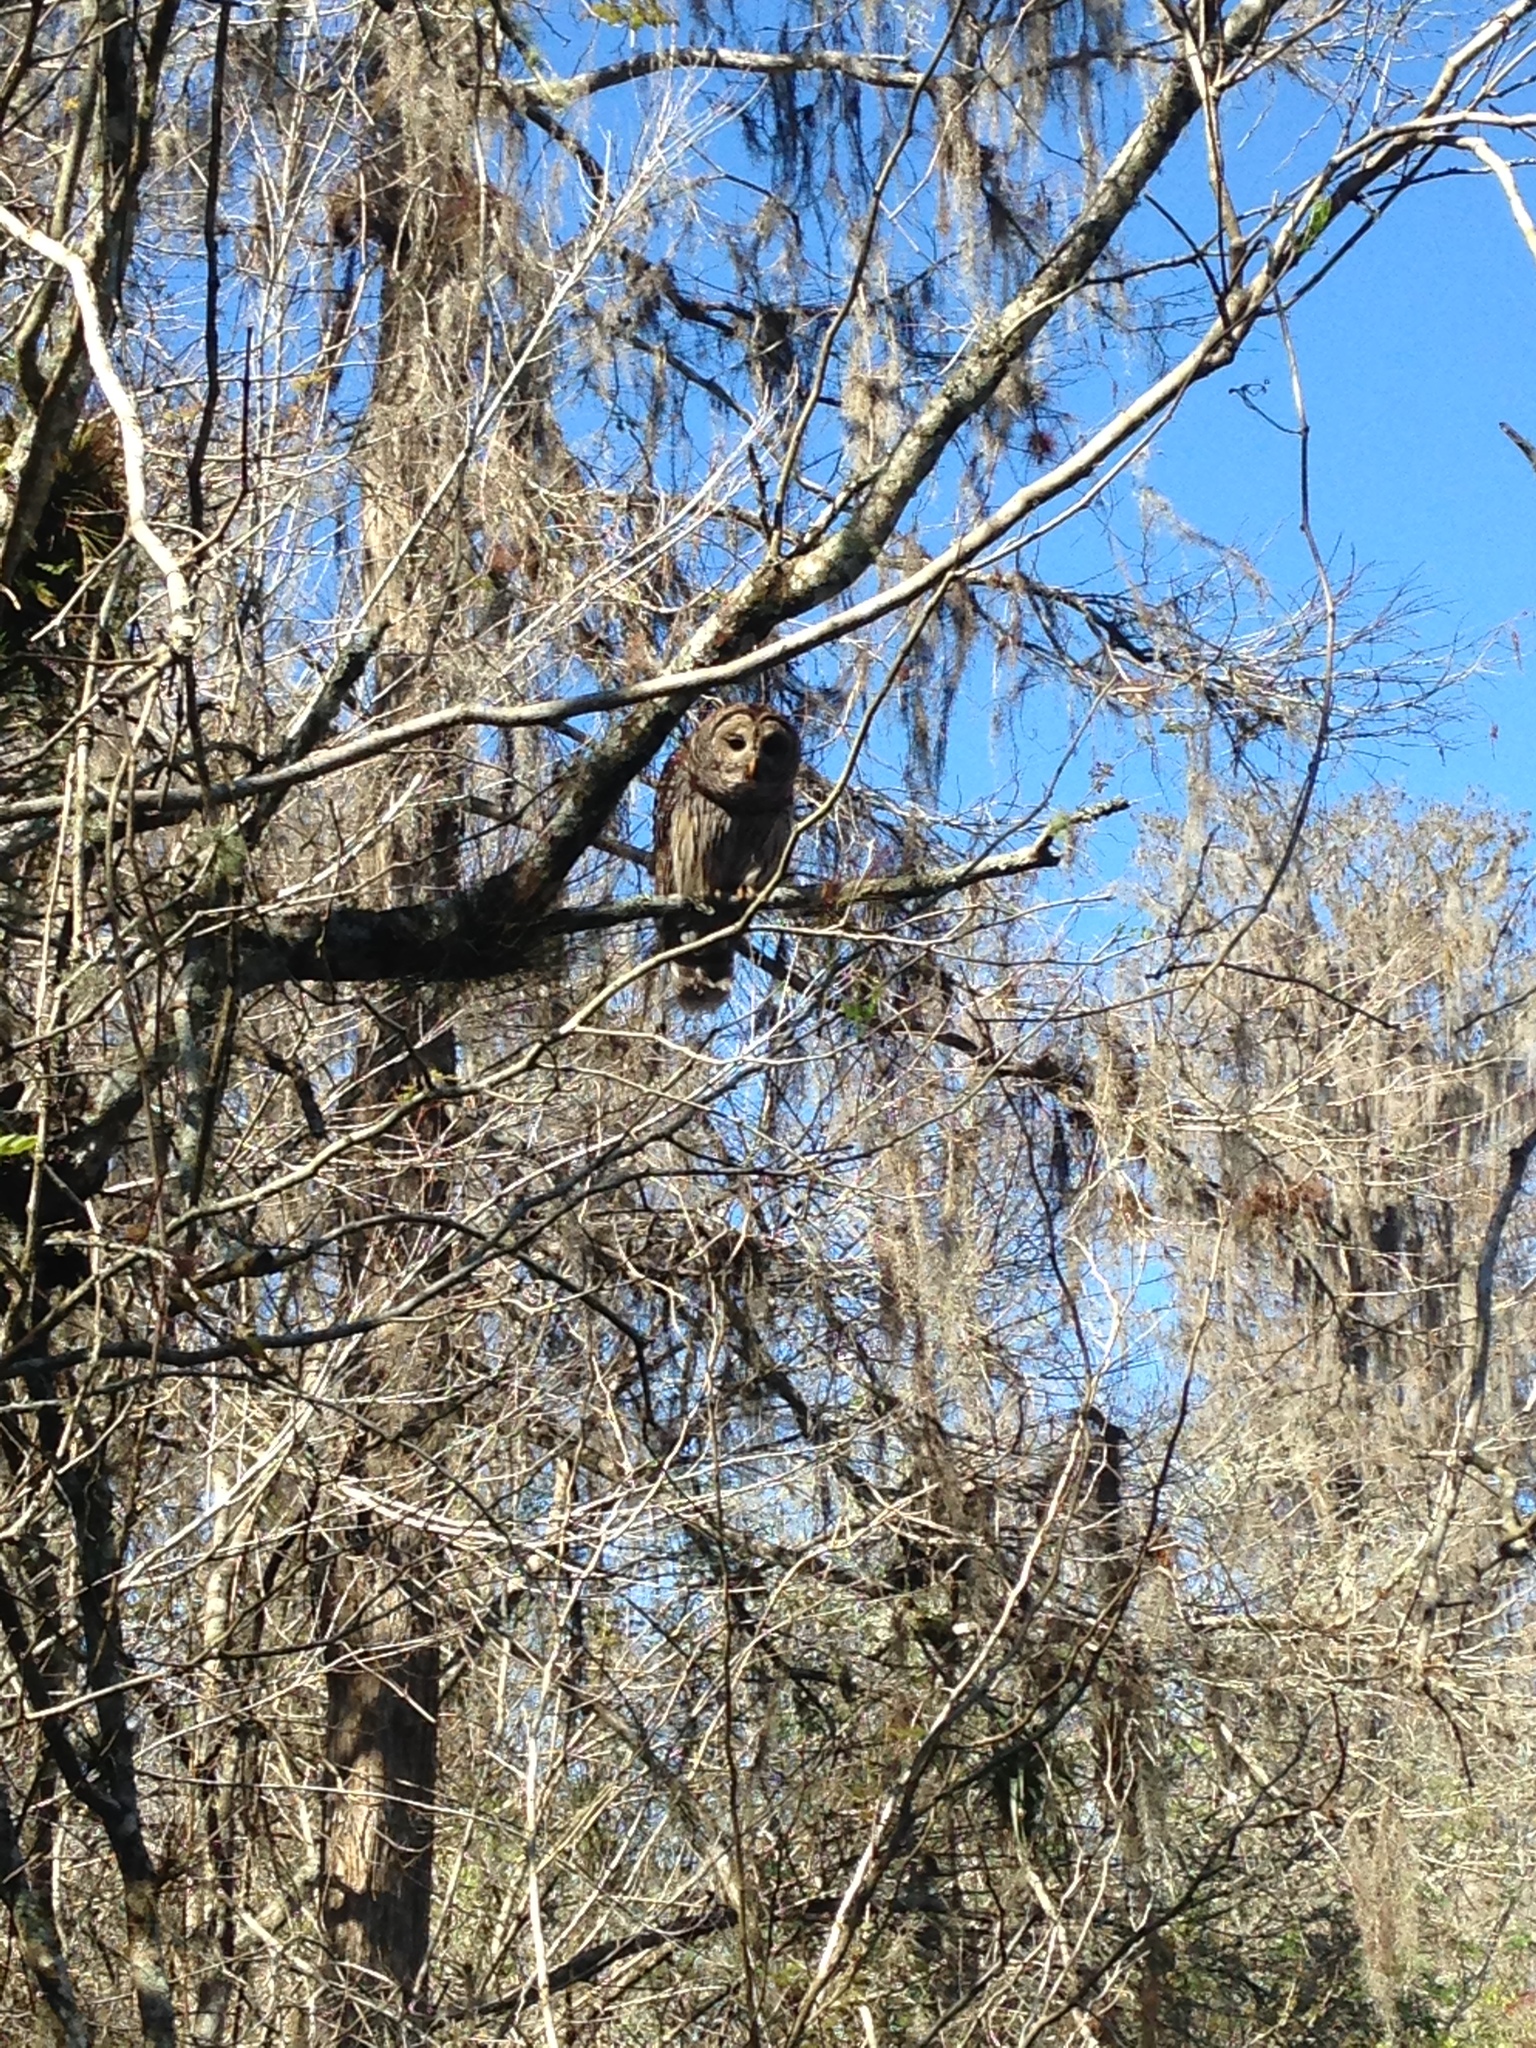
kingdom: Animalia
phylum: Chordata
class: Aves
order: Strigiformes
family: Strigidae
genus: Strix
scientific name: Strix varia
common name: Barred owl
